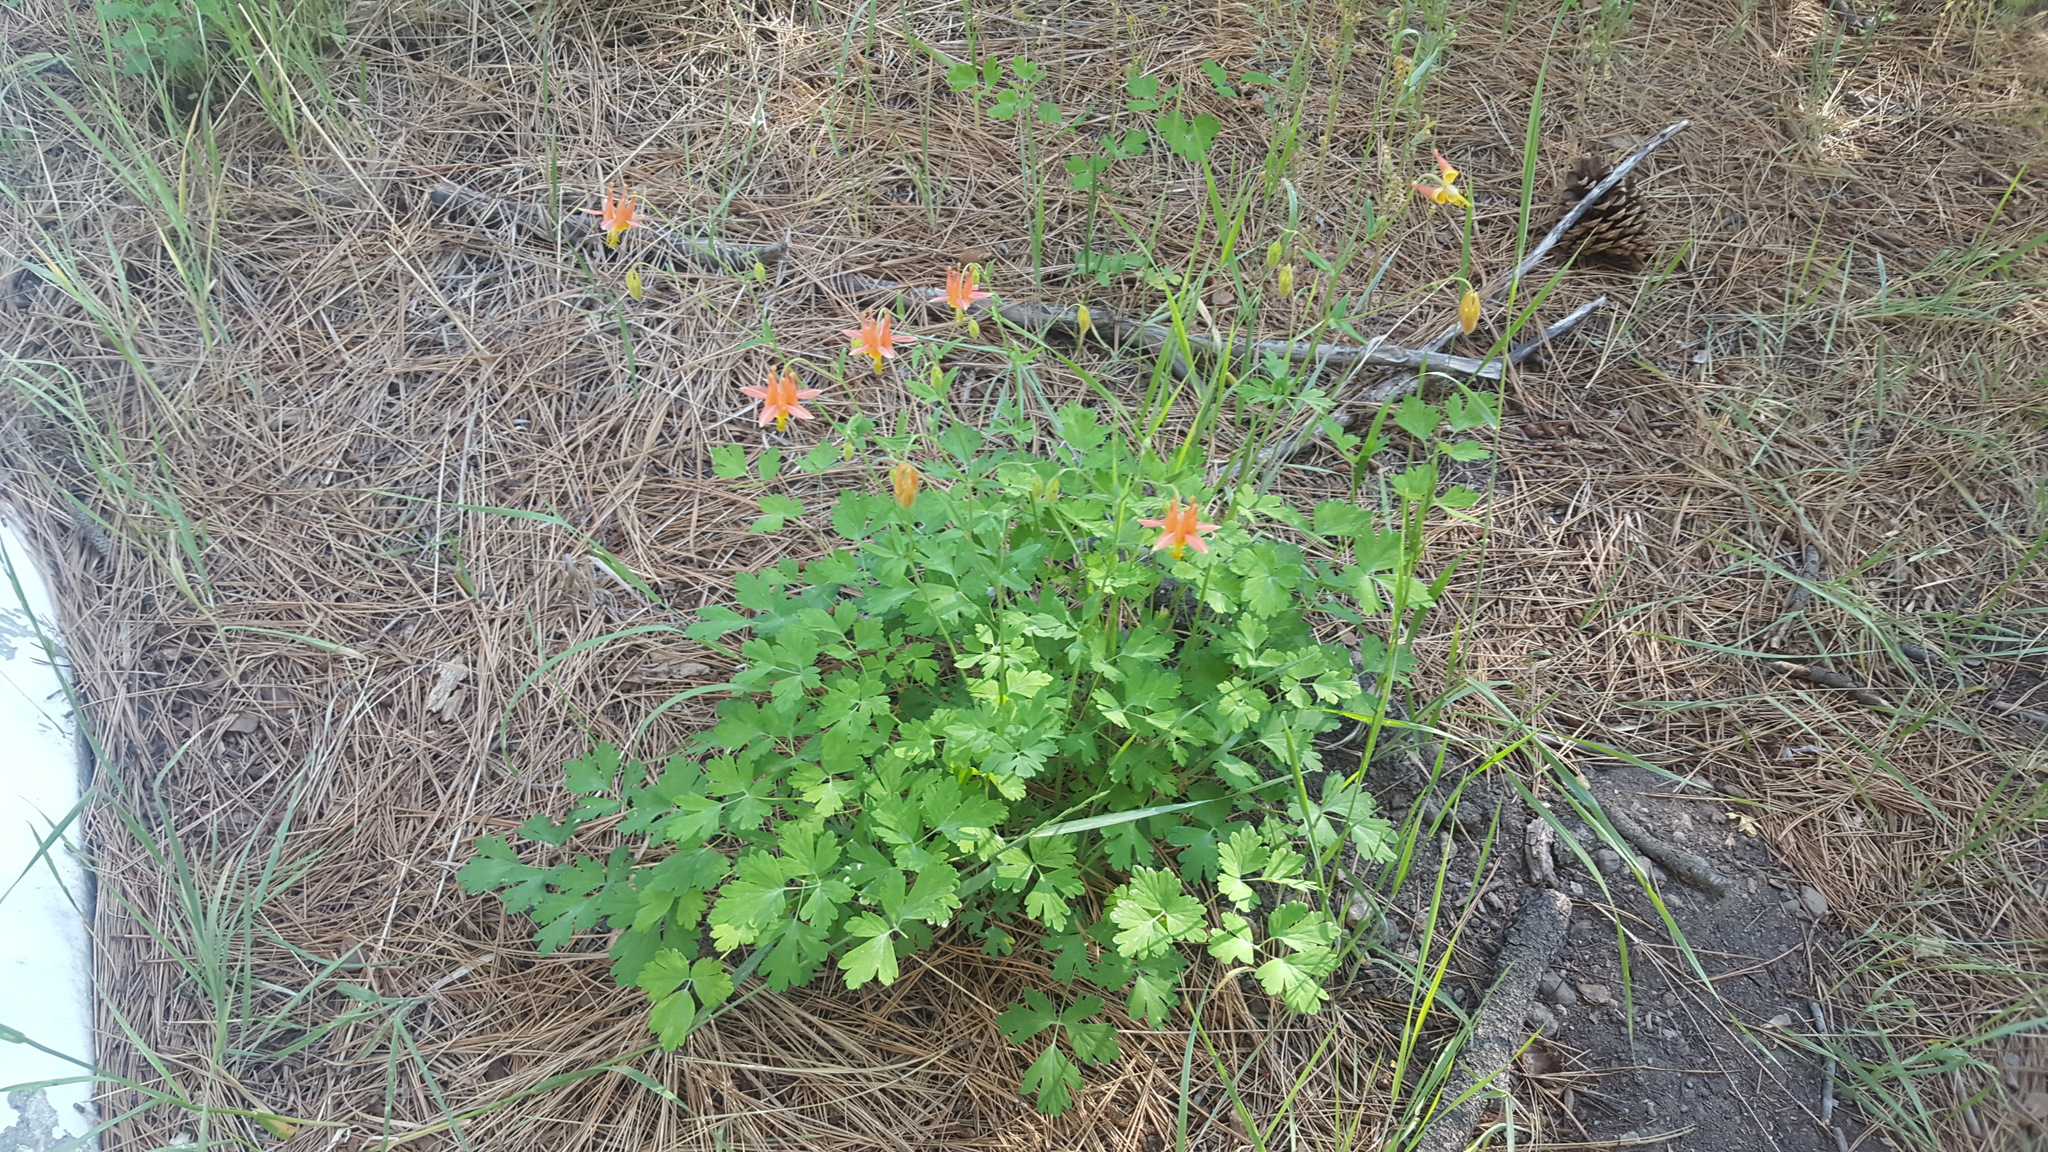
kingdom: Plantae
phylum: Tracheophyta
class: Magnoliopsida
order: Ranunculales
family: Ranunculaceae
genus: Aquilegia
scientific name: Aquilegia formosa
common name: Sitka columbine
